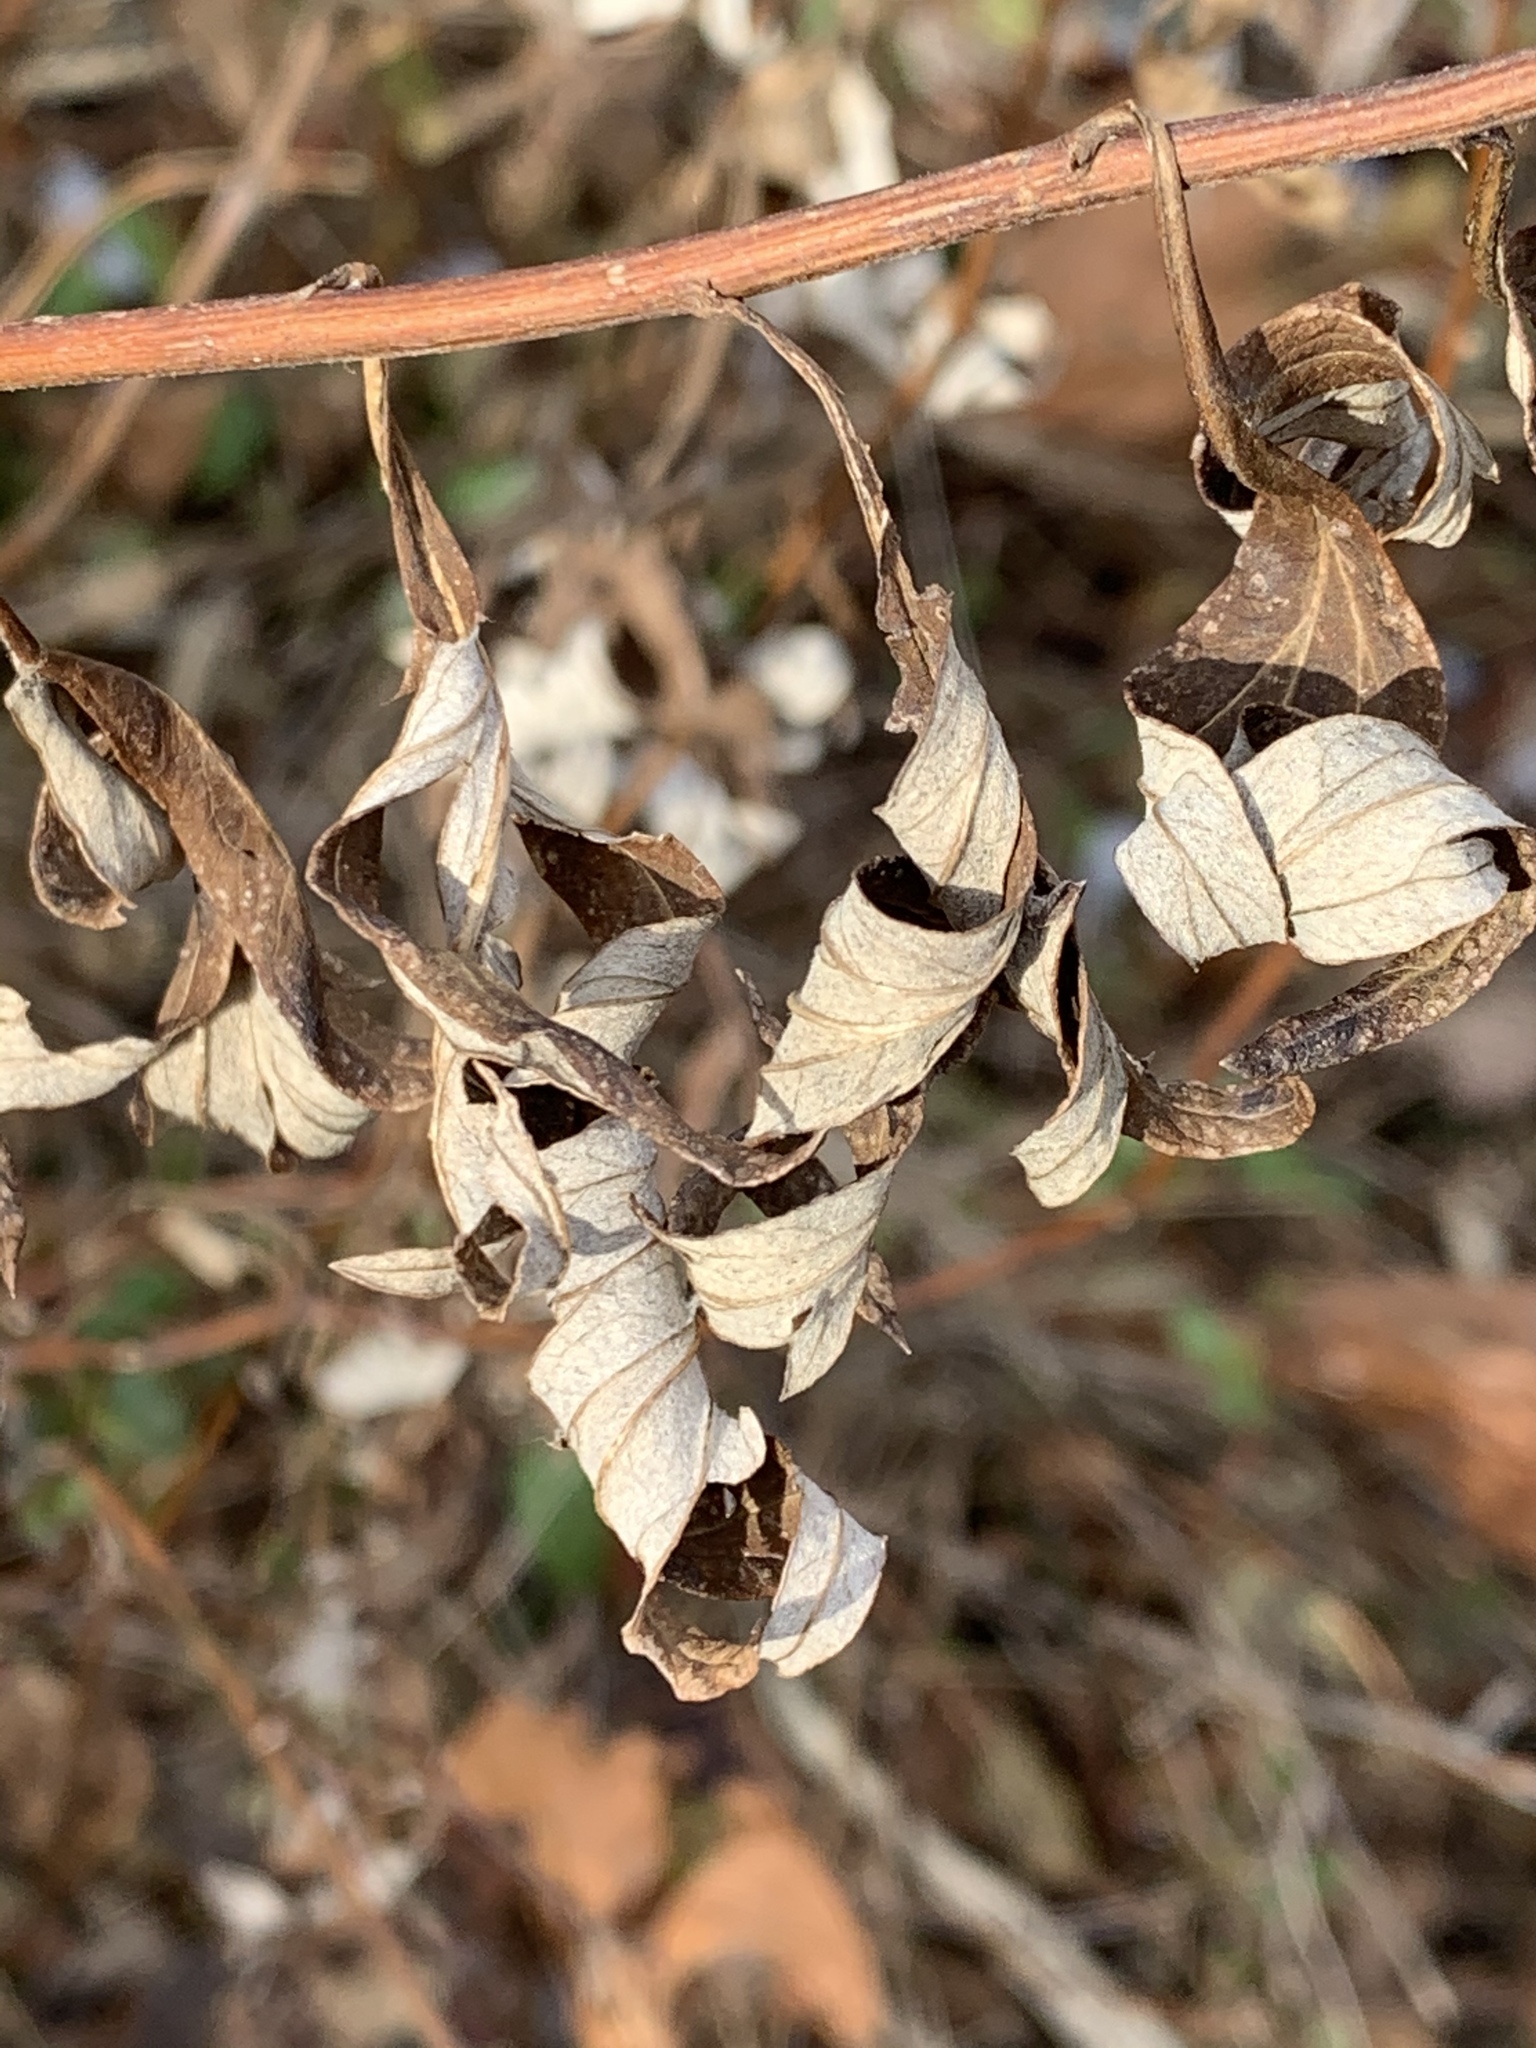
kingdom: Plantae
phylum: Tracheophyta
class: Magnoliopsida
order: Asterales
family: Asteraceae
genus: Artemisia
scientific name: Artemisia vulgaris
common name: Mugwort
